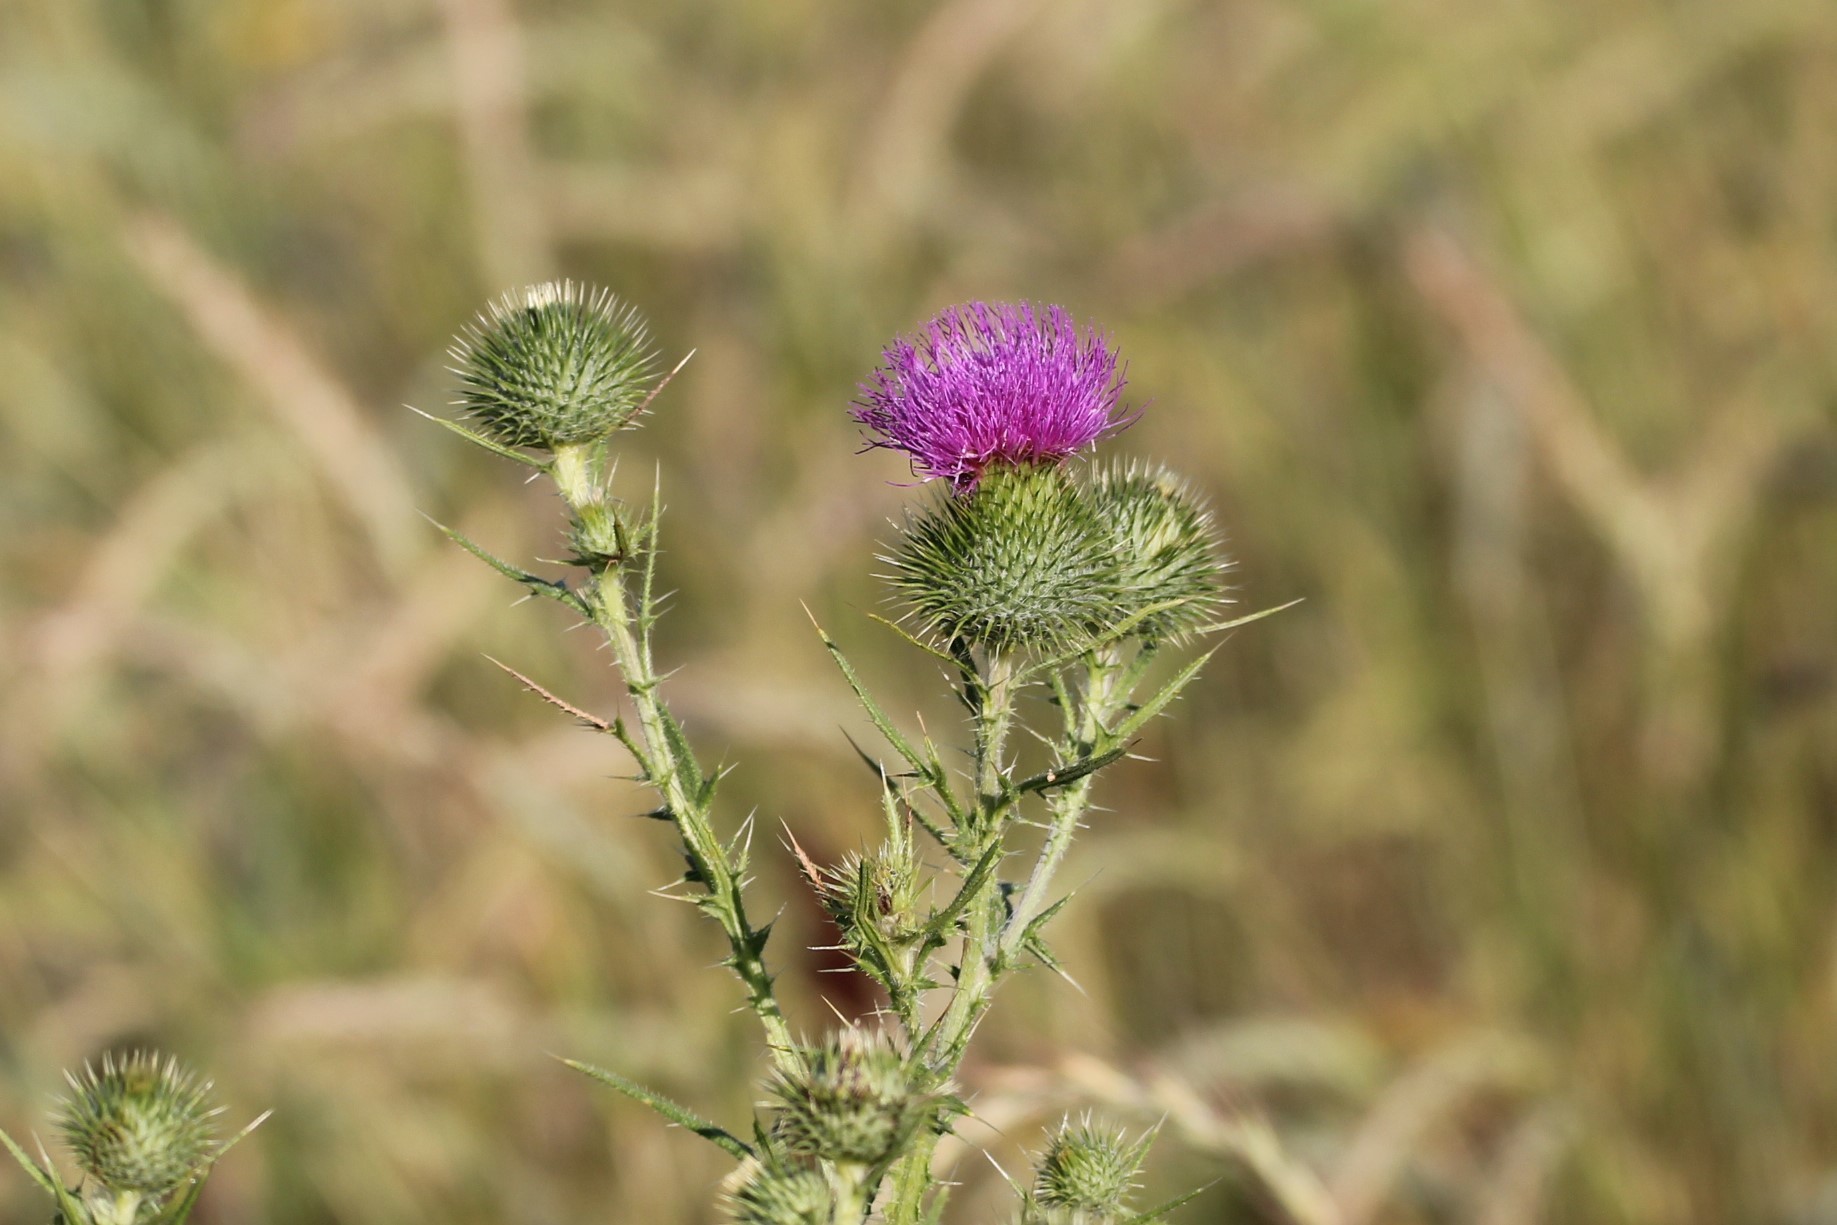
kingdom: Plantae
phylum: Tracheophyta
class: Magnoliopsida
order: Asterales
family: Asteraceae
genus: Cirsium
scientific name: Cirsium vulgare
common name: Bull thistle
